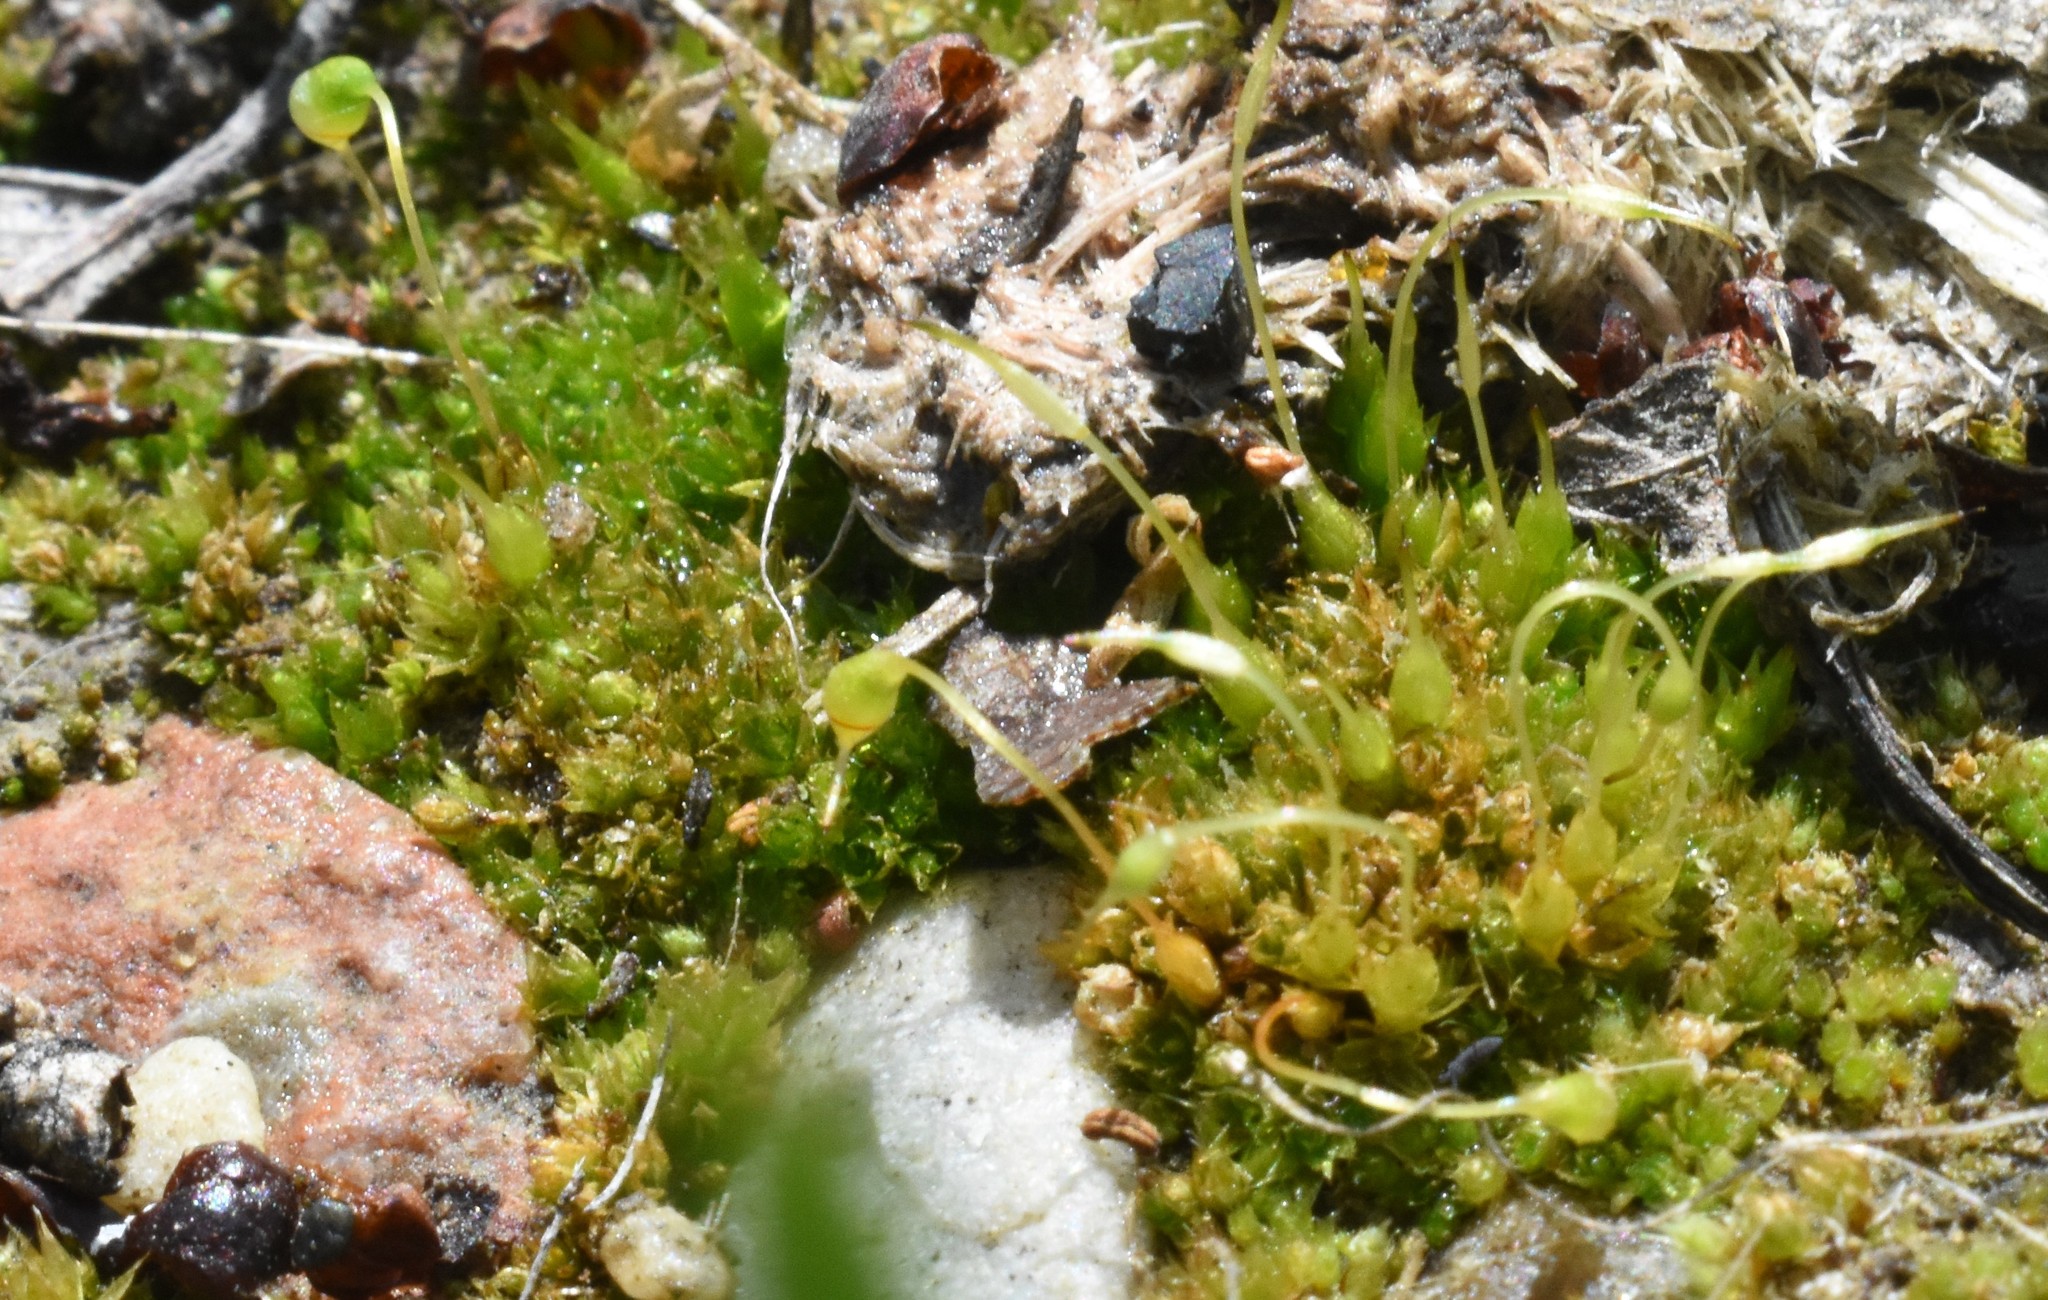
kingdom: Plantae
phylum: Bryophyta
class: Bryopsida
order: Funariales
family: Funariaceae
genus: Funaria
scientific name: Funaria hygrometrica
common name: Common cord moss
